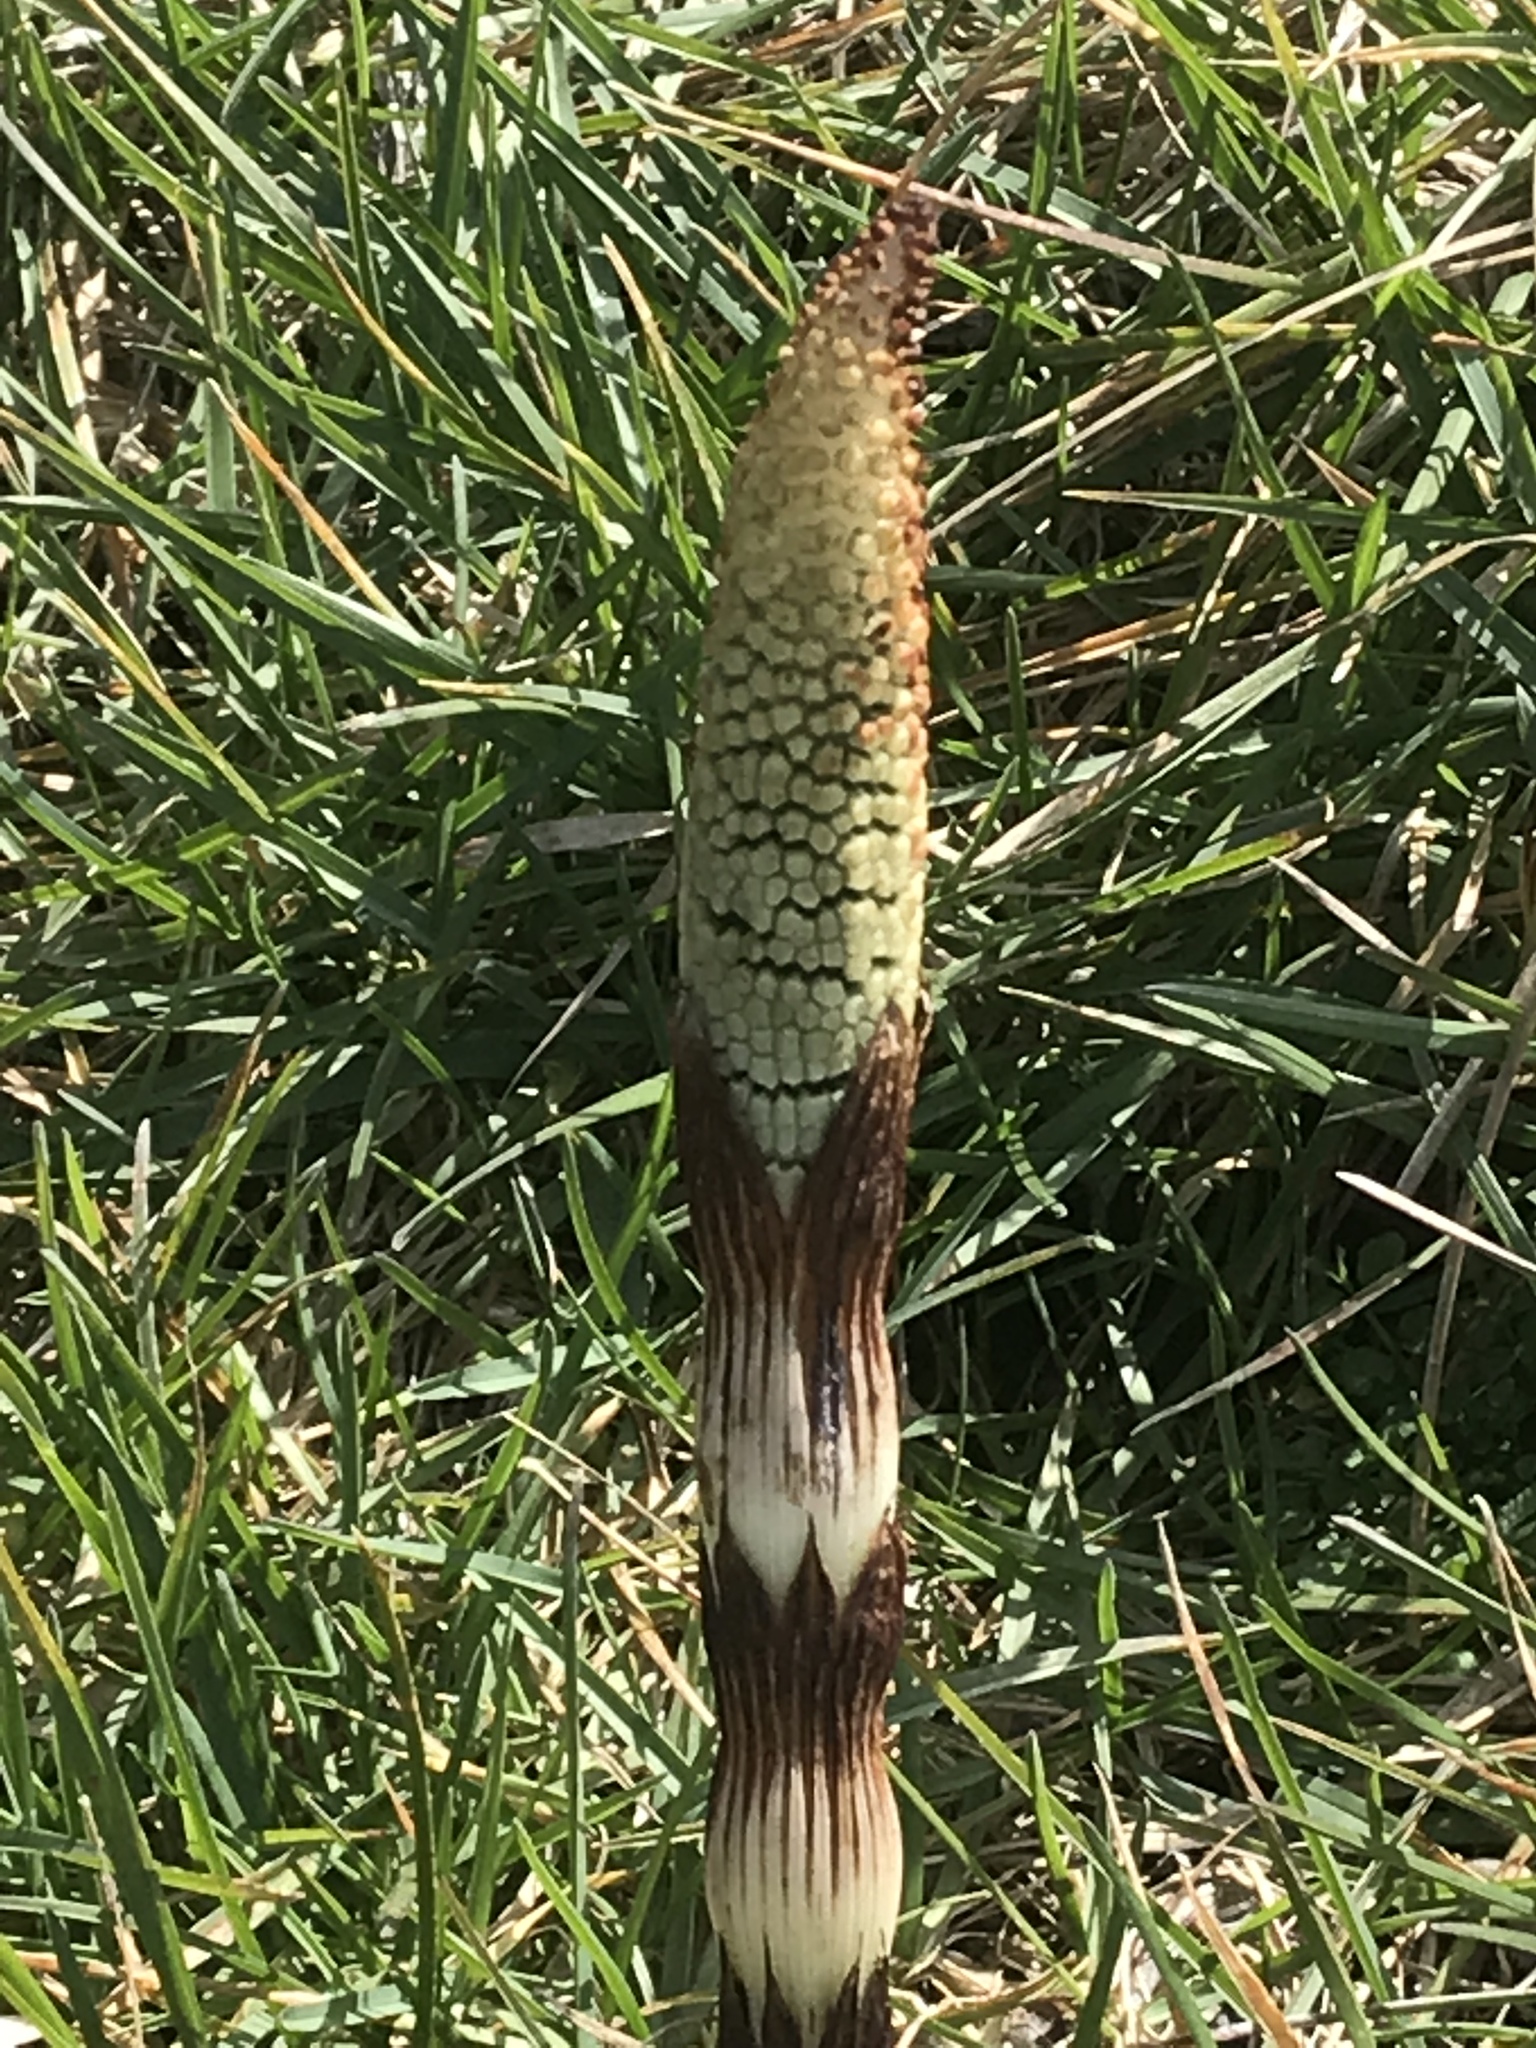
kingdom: Plantae
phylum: Tracheophyta
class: Polypodiopsida
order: Equisetales
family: Equisetaceae
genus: Equisetum
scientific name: Equisetum telmateia
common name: Great horsetail
